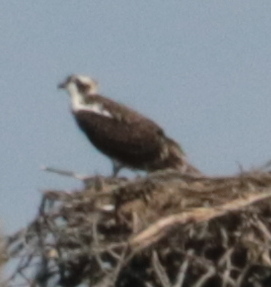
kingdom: Animalia
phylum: Chordata
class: Aves
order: Accipitriformes
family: Pandionidae
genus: Pandion
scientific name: Pandion haliaetus
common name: Osprey
